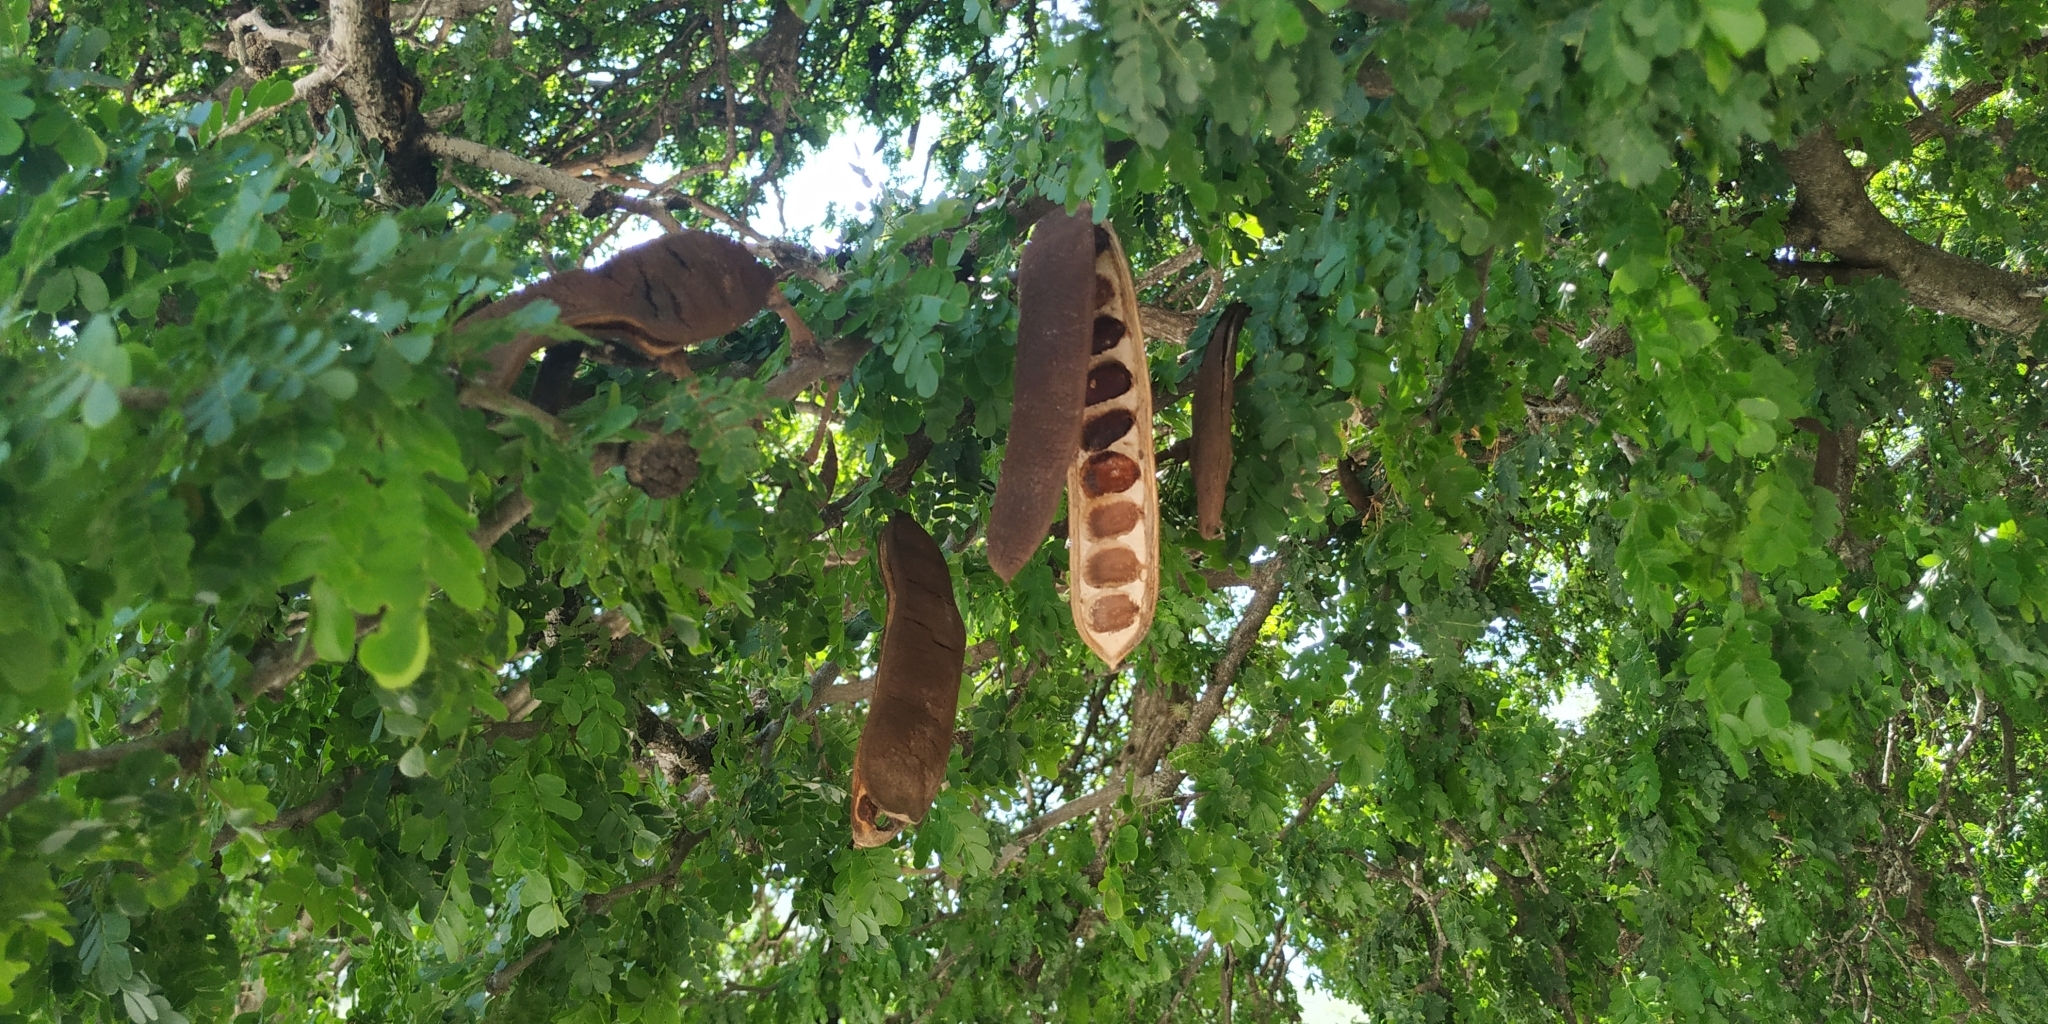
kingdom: Plantae
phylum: Tracheophyta
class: Magnoliopsida
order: Fabales
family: Fabaceae
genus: Ebenopsis
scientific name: Ebenopsis ebano
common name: Ebony blackbead
